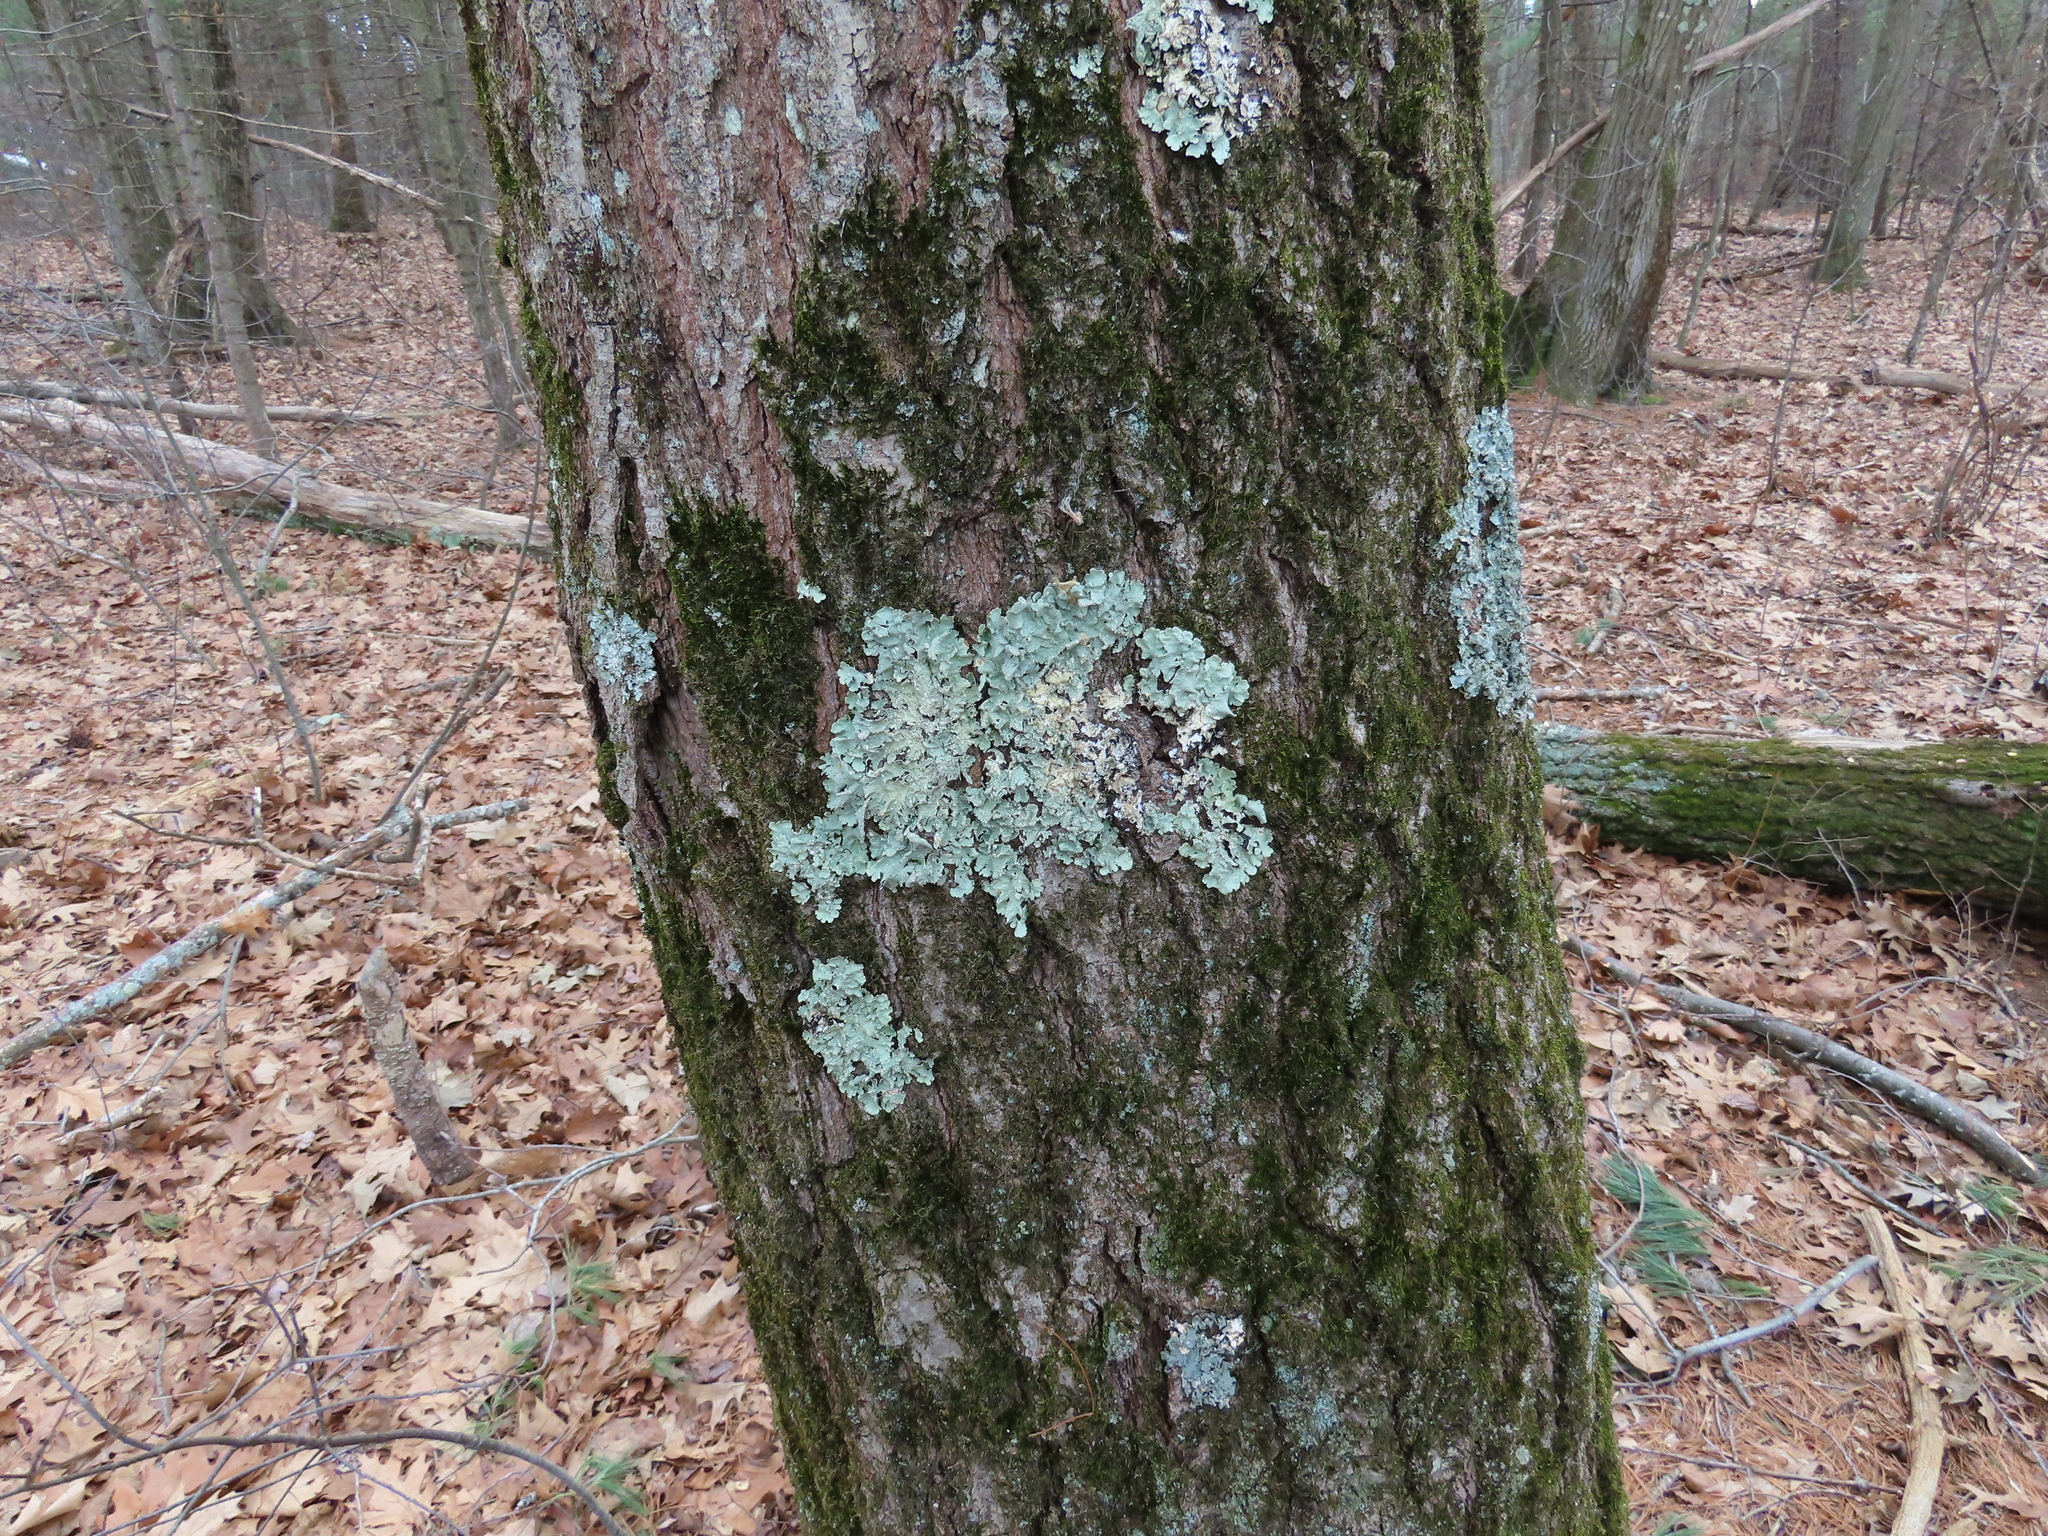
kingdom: Fungi
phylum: Ascomycota
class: Lecanoromycetes
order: Lecanorales
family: Parmeliaceae
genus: Flavoparmelia
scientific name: Flavoparmelia caperata
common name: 40-mile per hour lichen
